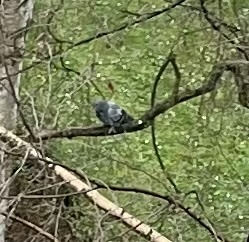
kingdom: Animalia
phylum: Chordata
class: Aves
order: Columbiformes
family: Columbidae
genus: Columba
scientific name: Columba livia
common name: Rock pigeon
